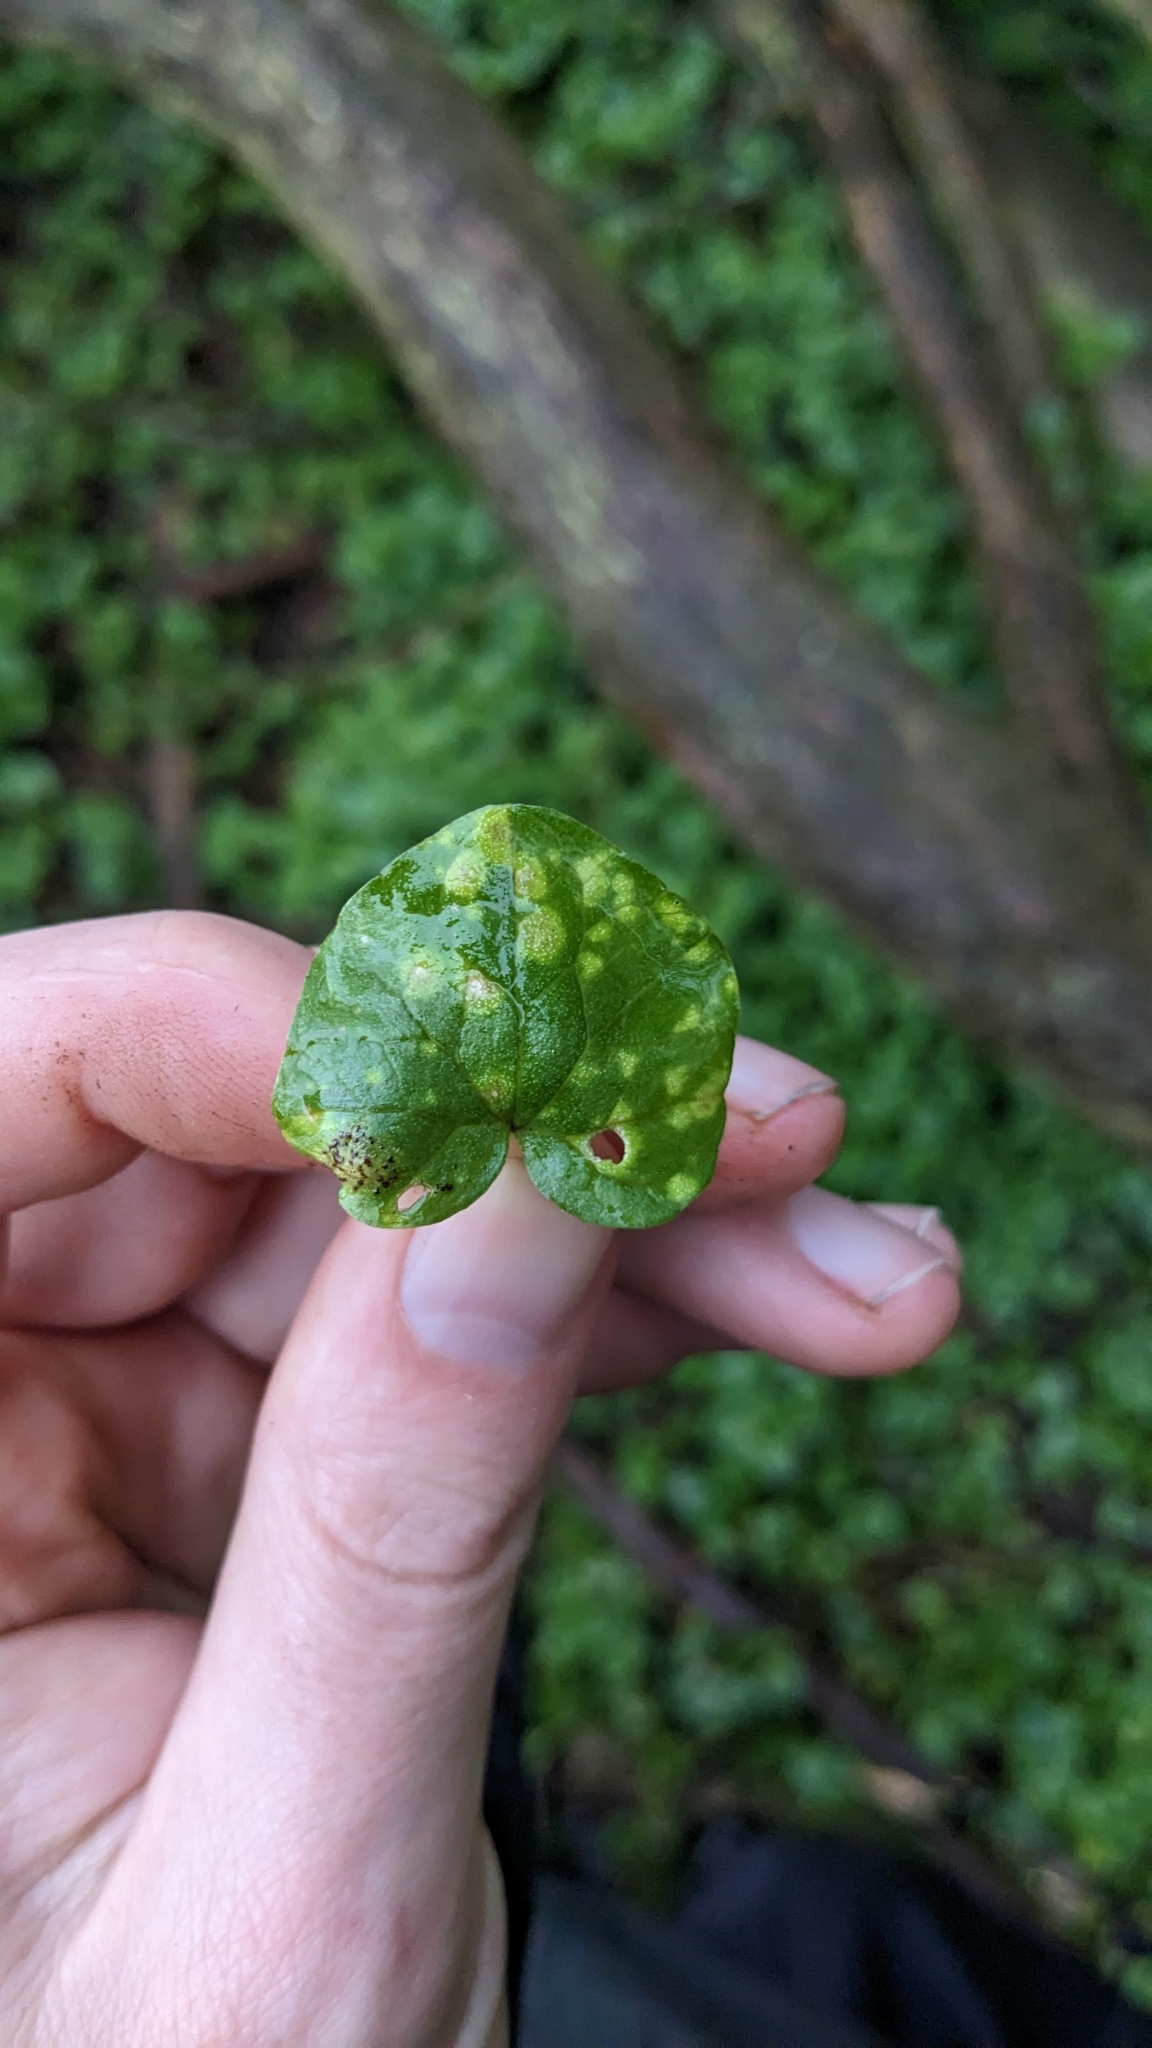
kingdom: Fungi
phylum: Basidiomycota
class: Exobasidiomycetes
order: Entylomatales
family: Entylomataceae
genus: Entyloma
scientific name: Entyloma ficariae
